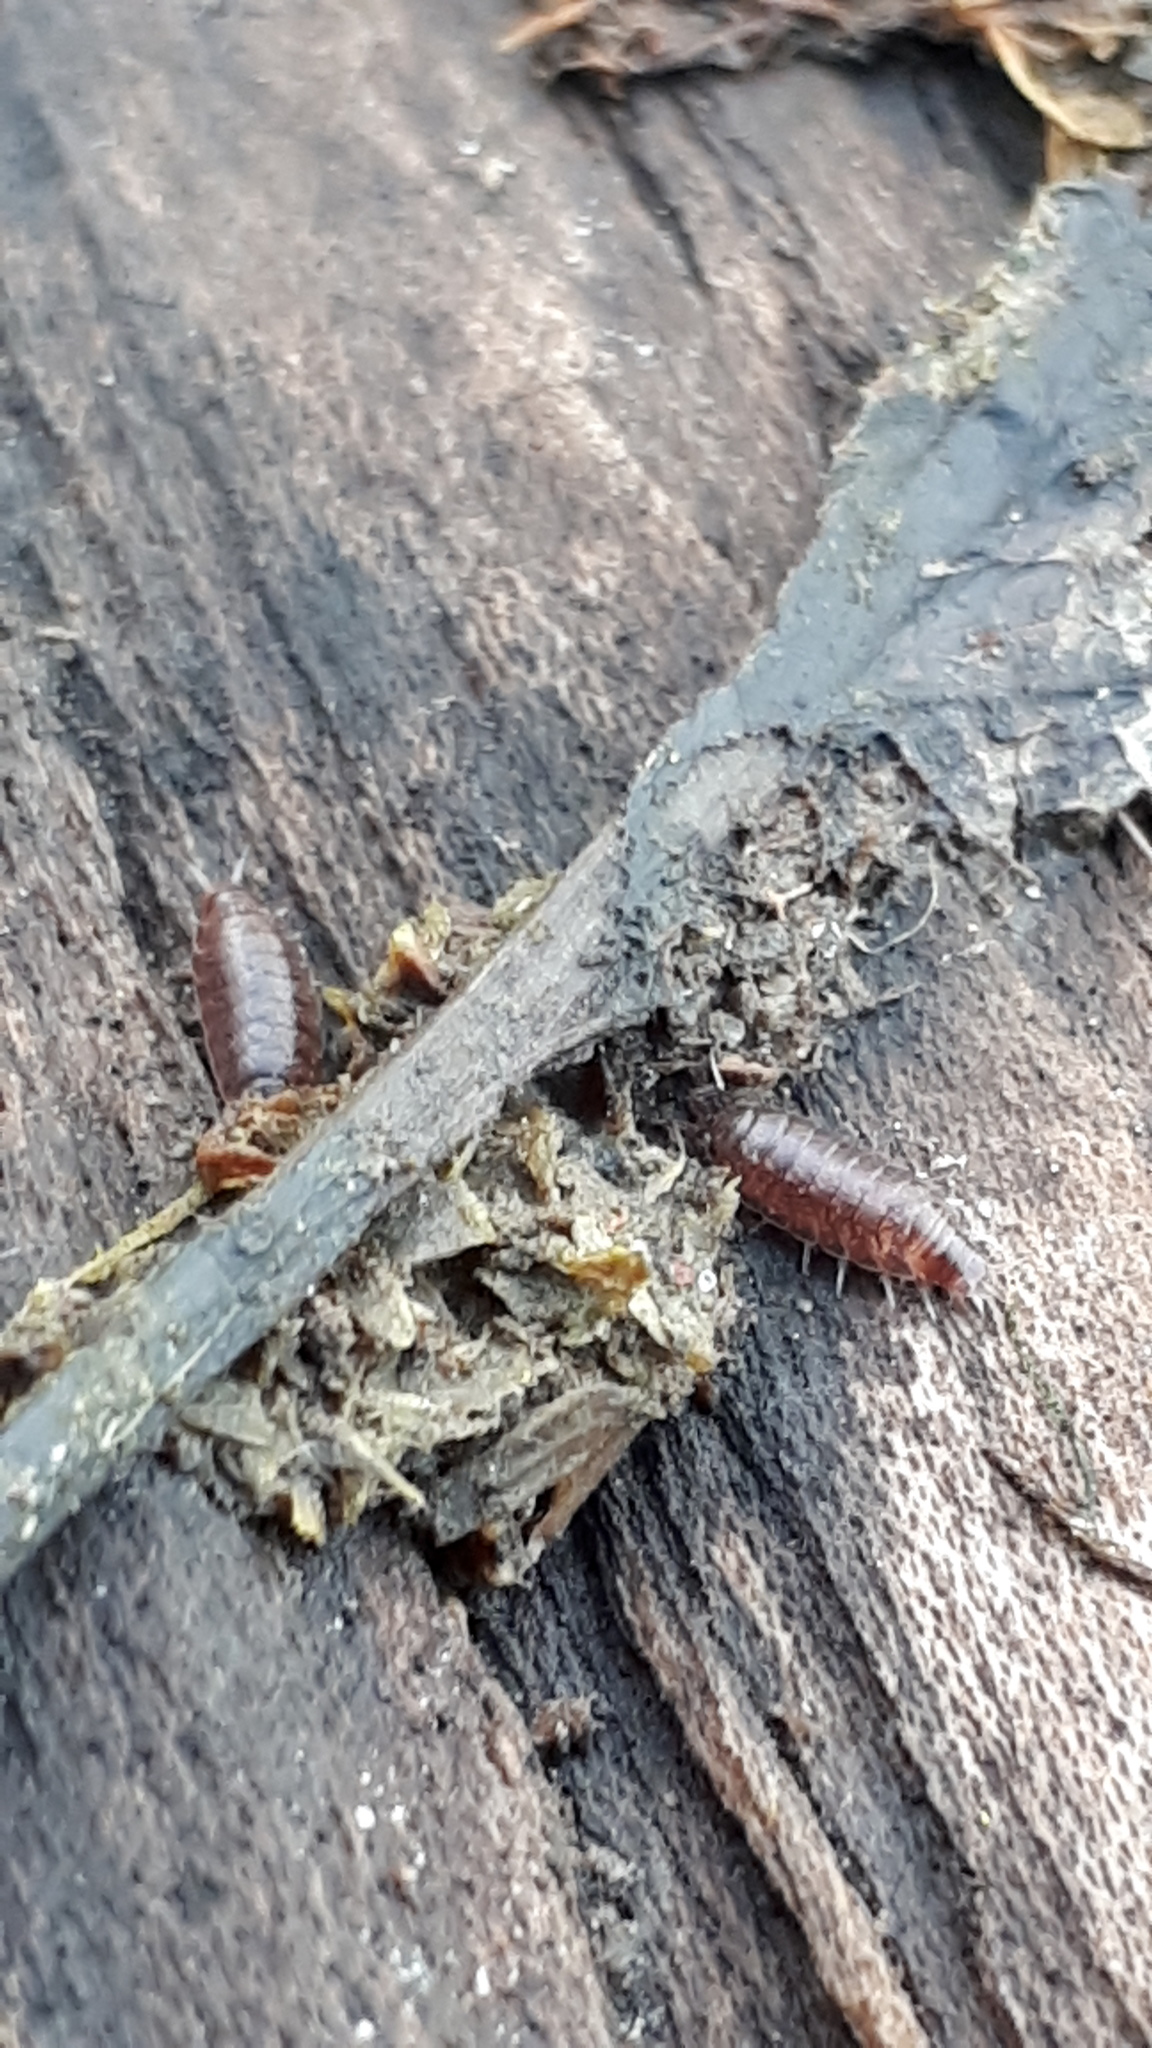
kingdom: Animalia
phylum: Arthropoda
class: Malacostraca
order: Isopoda
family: Trichoniscidae
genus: Hyloniscus
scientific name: Hyloniscus riparius
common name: Isopod
